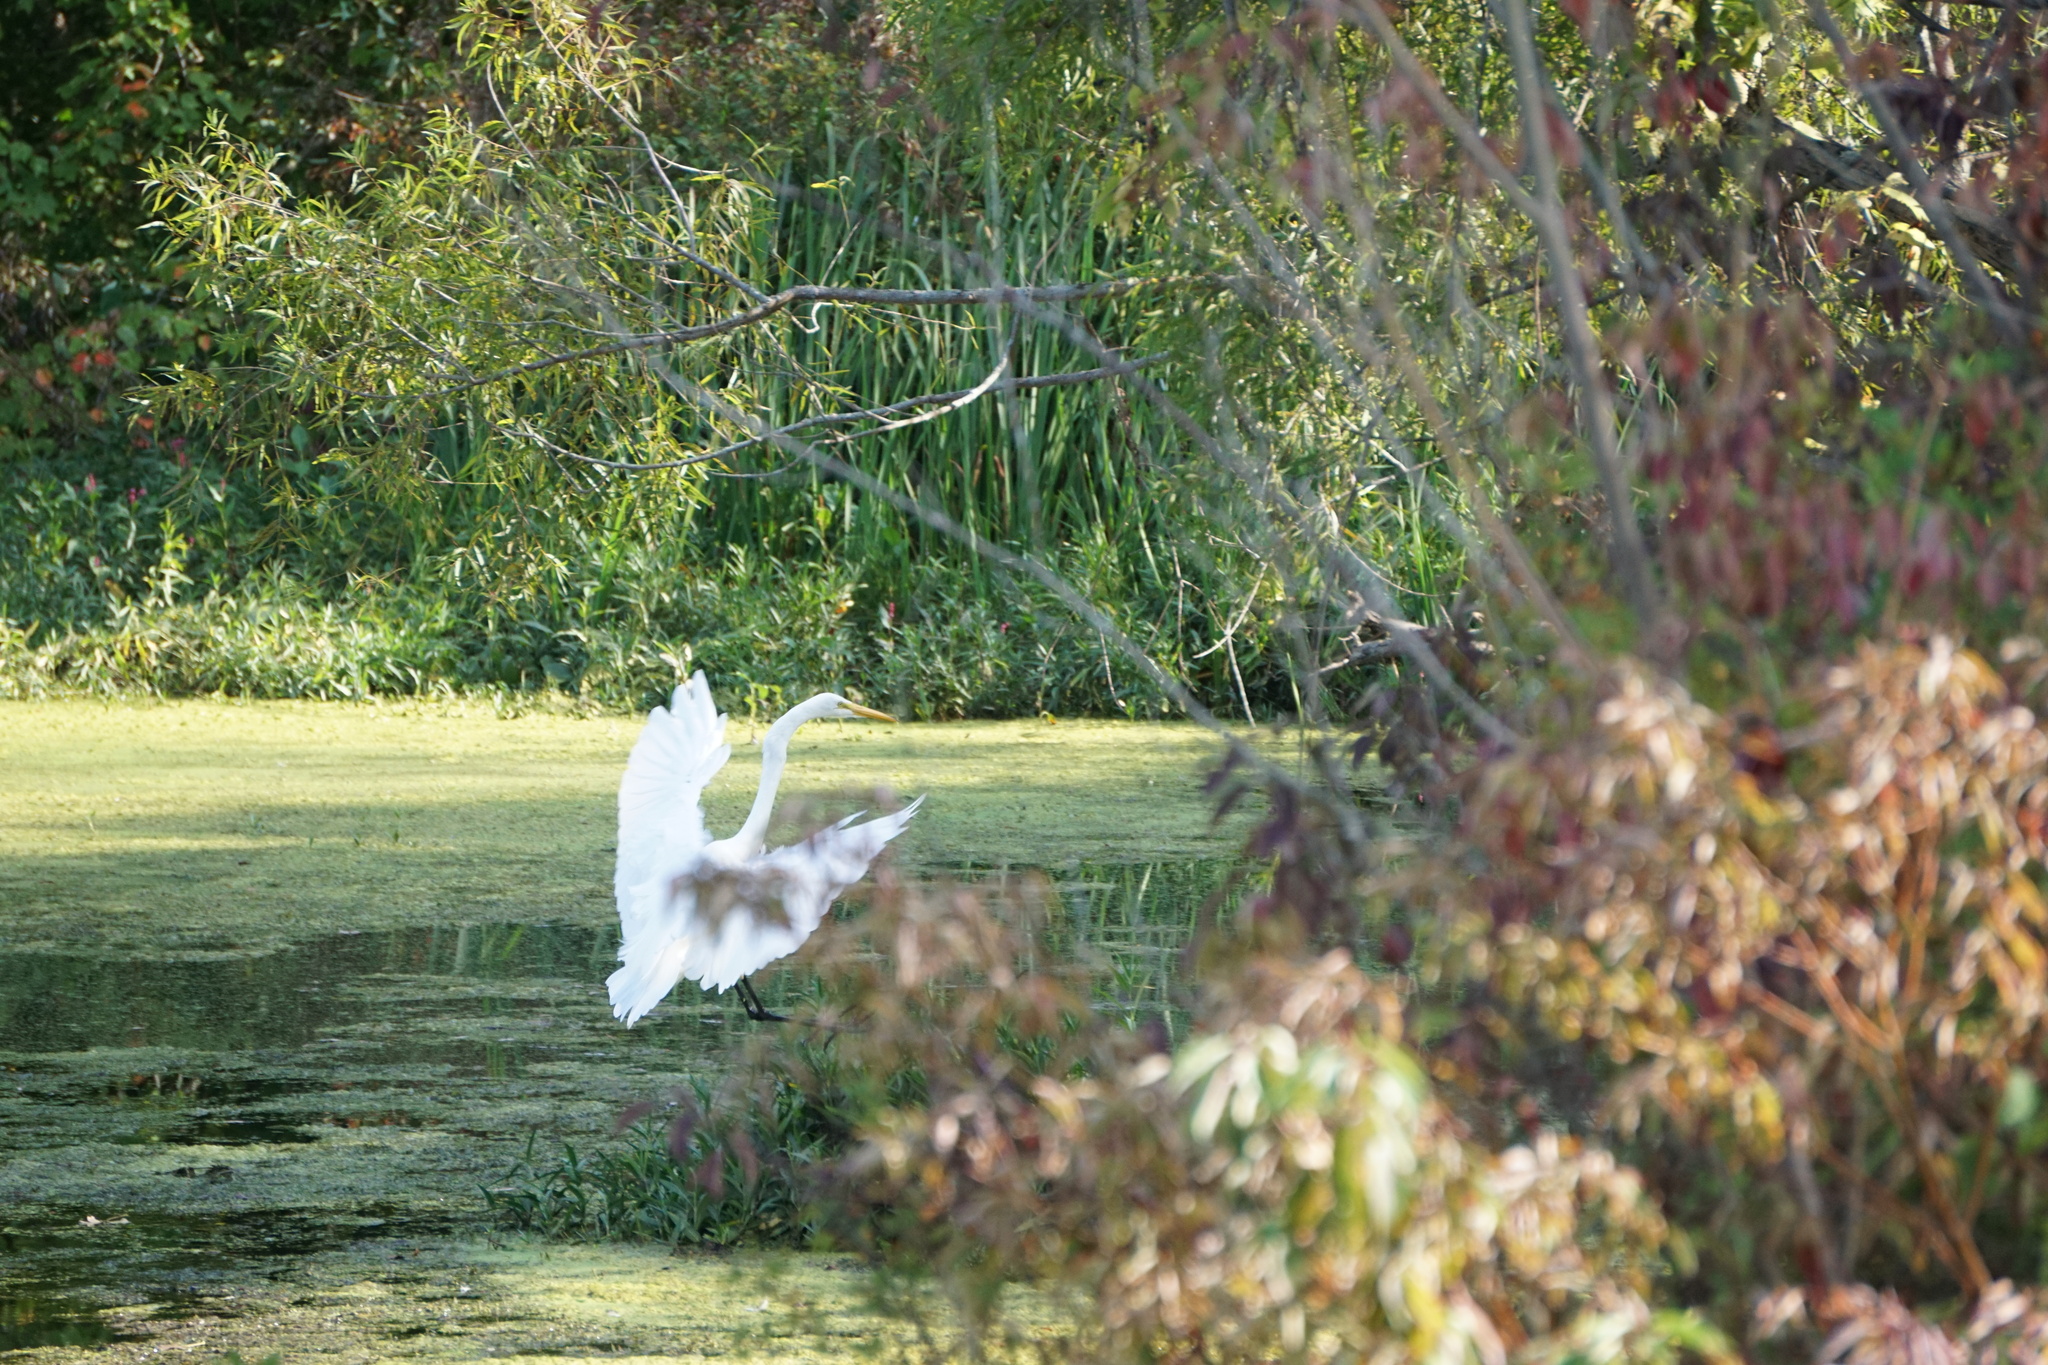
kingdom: Animalia
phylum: Chordata
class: Aves
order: Pelecaniformes
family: Ardeidae
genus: Ardea
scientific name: Ardea alba
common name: Great egret
